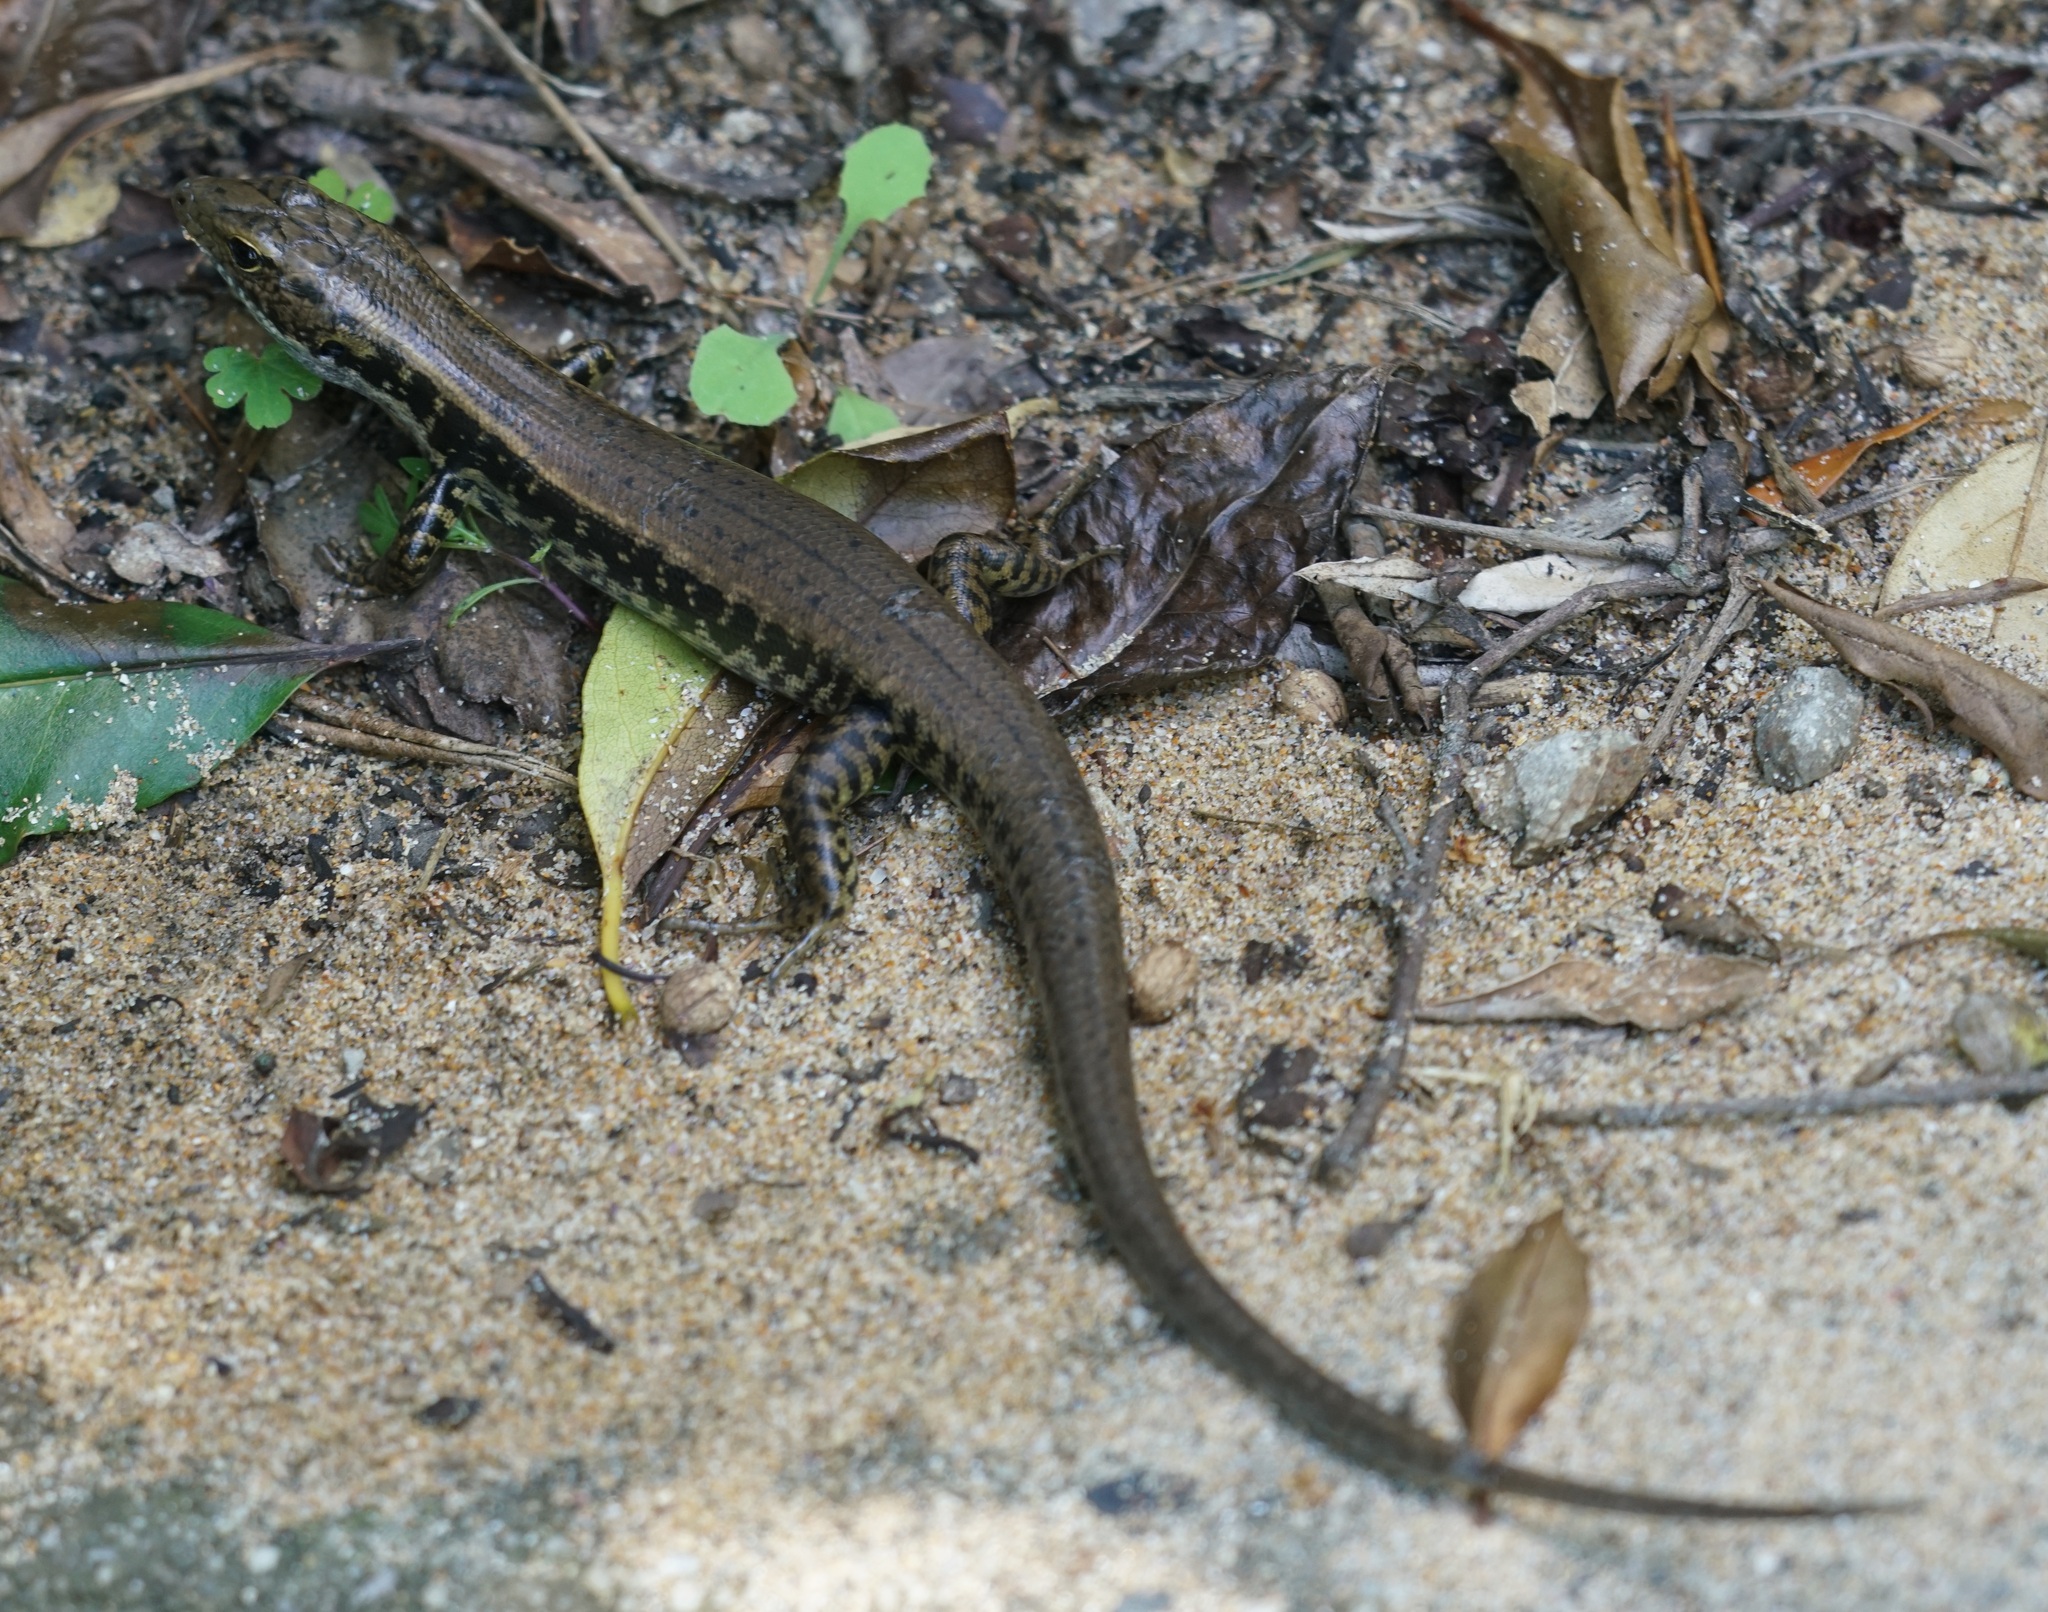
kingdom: Animalia
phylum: Chordata
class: Squamata
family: Scincidae
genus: Eulamprus
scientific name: Eulamprus quoyii
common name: Eastern water skink
